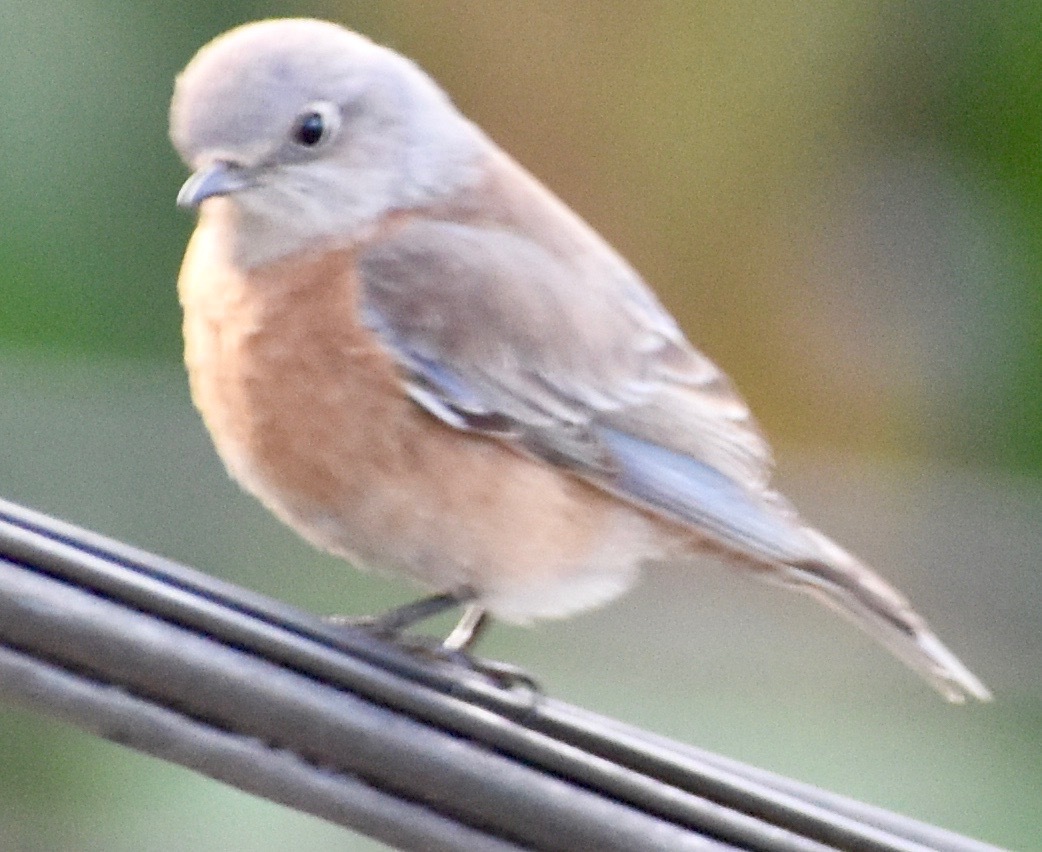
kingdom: Animalia
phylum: Chordata
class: Aves
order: Passeriformes
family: Turdidae
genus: Sialia
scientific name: Sialia mexicana
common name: Western bluebird
